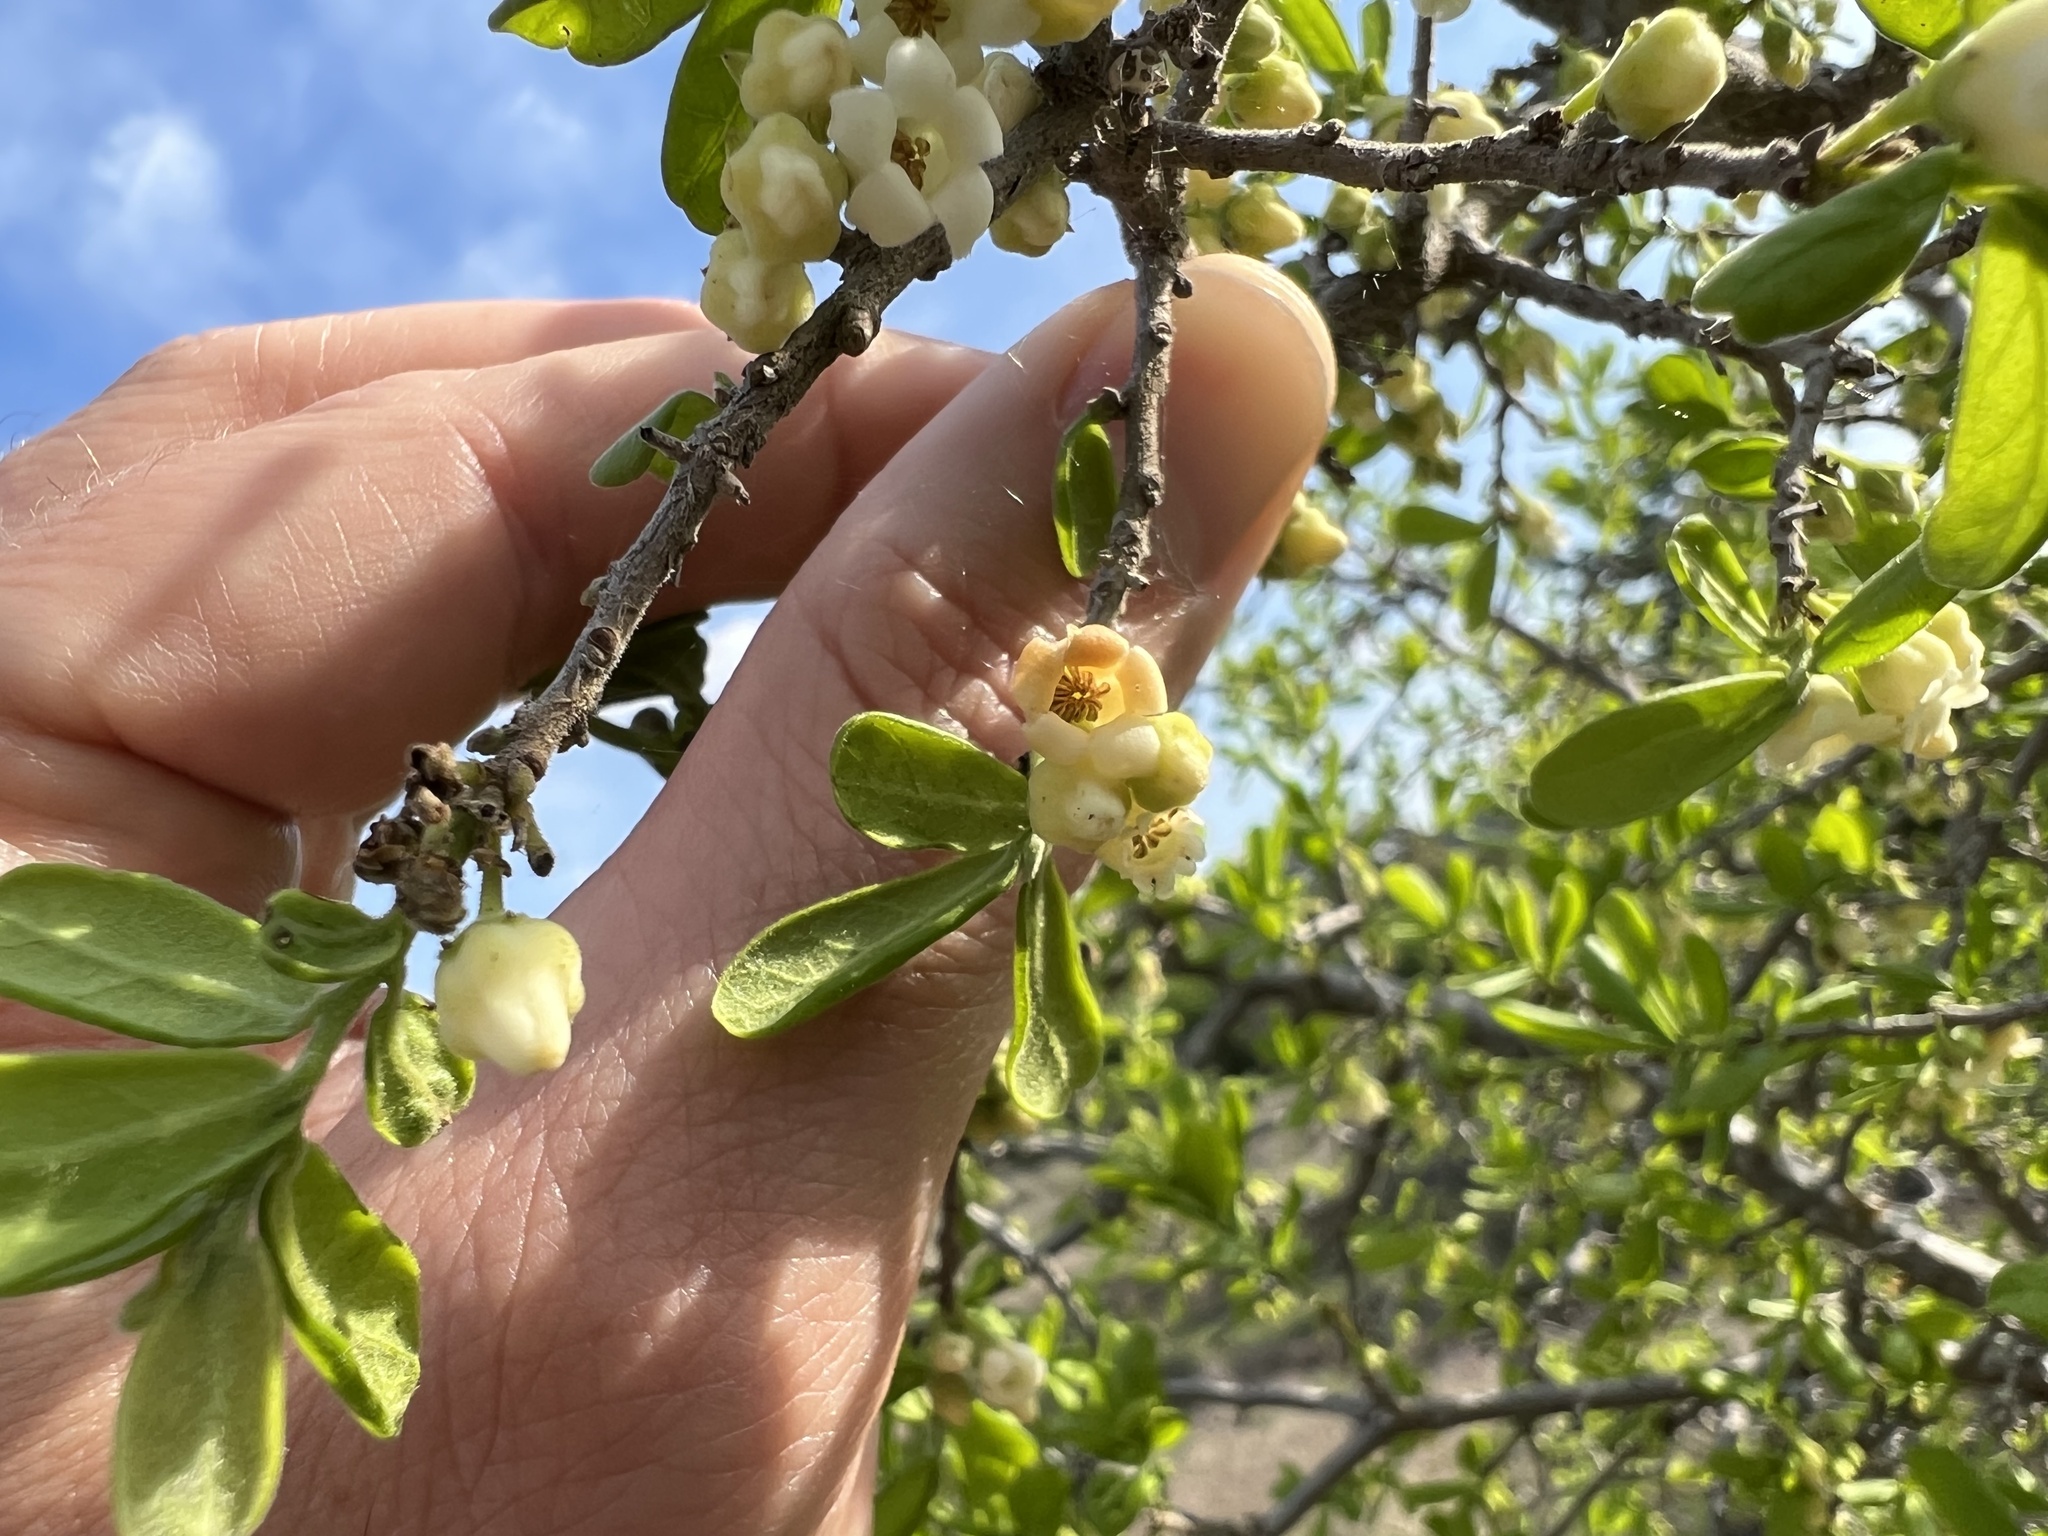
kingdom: Plantae
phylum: Tracheophyta
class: Magnoliopsida
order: Ericales
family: Ebenaceae
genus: Diospyros
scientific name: Diospyros texana
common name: Texas persimmon
